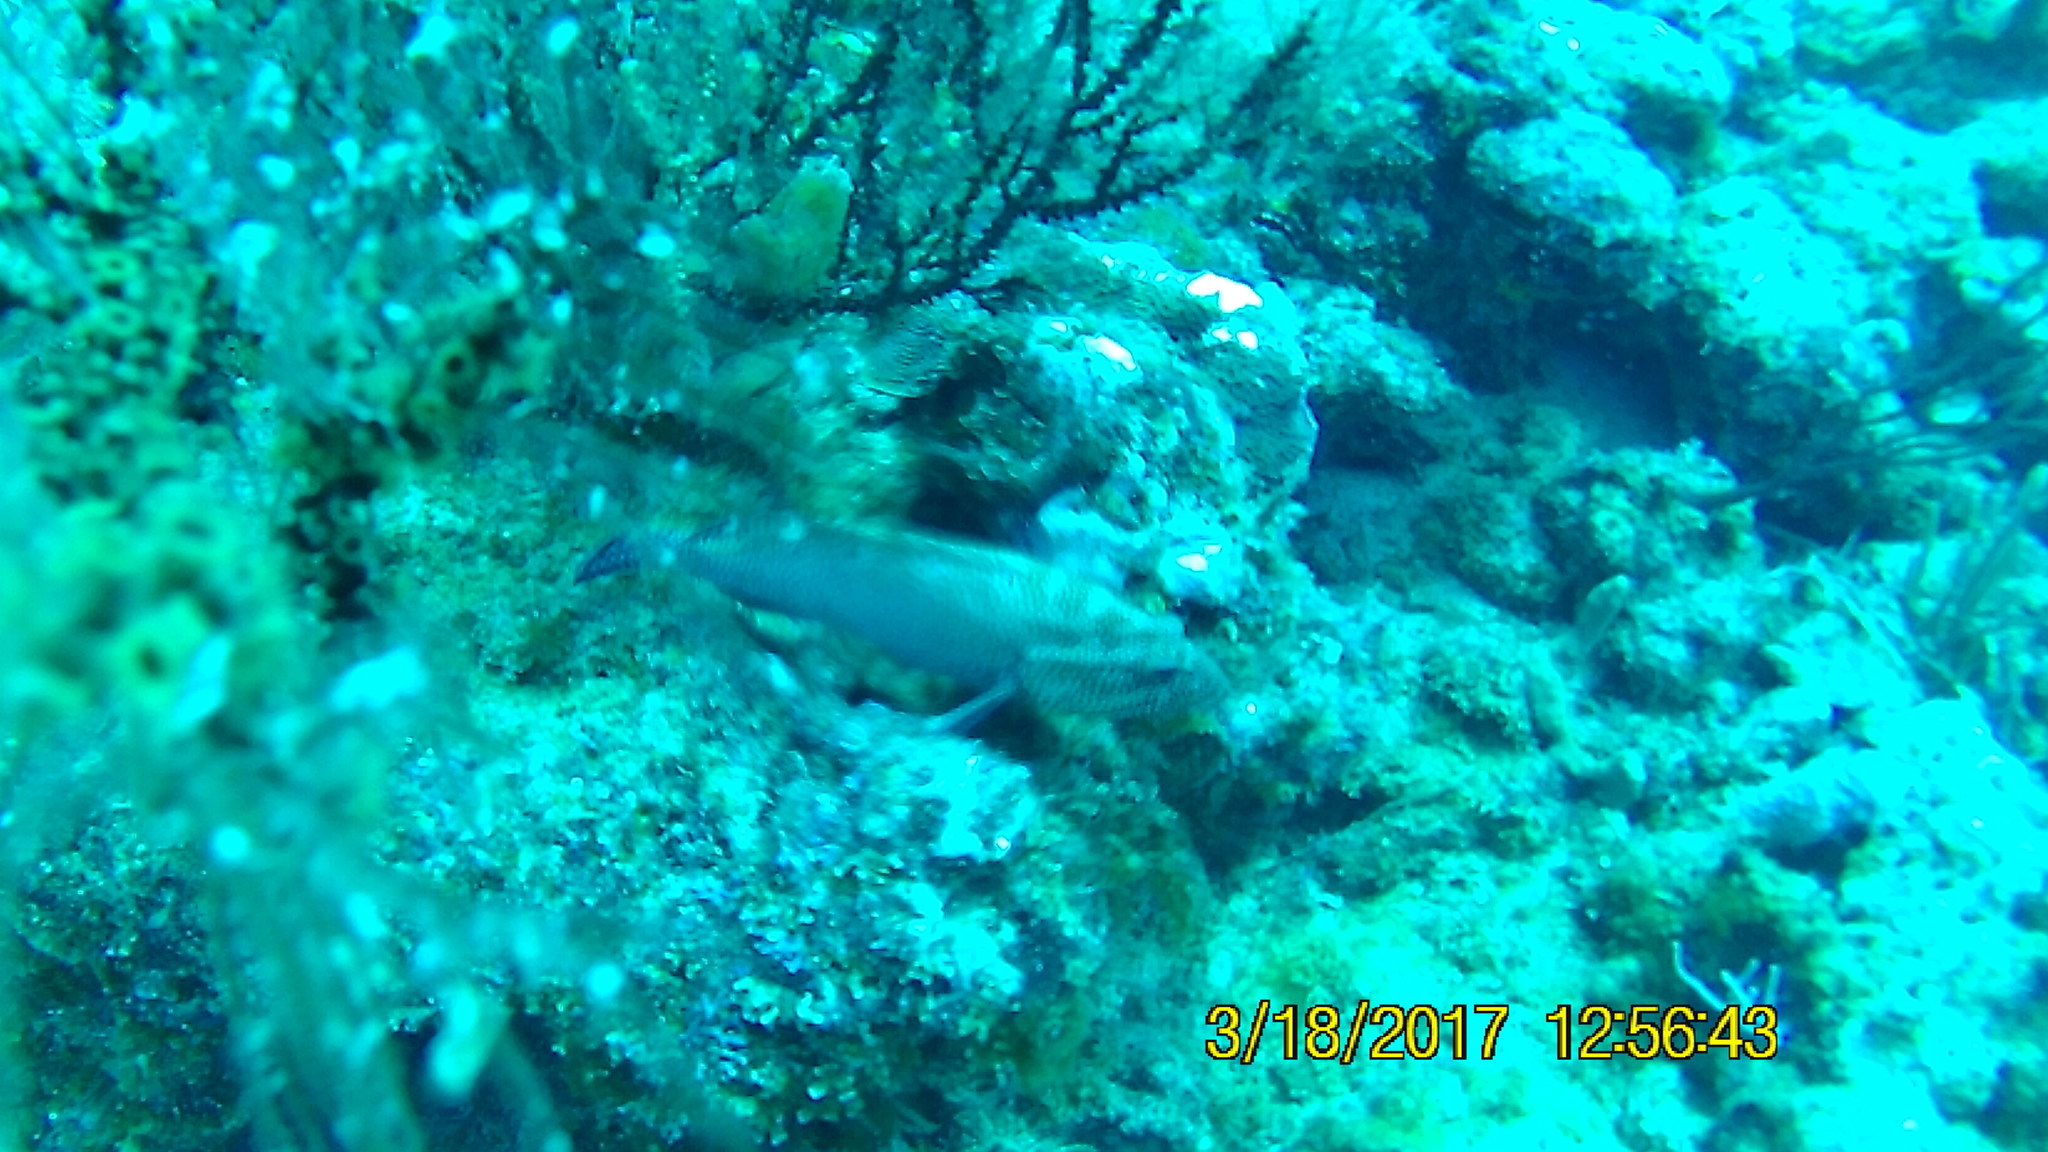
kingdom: Animalia
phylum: Chordata
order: Perciformes
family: Serranidae
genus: Mycteroperca
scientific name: Mycteroperca venenosa
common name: Yellowfin grouper
